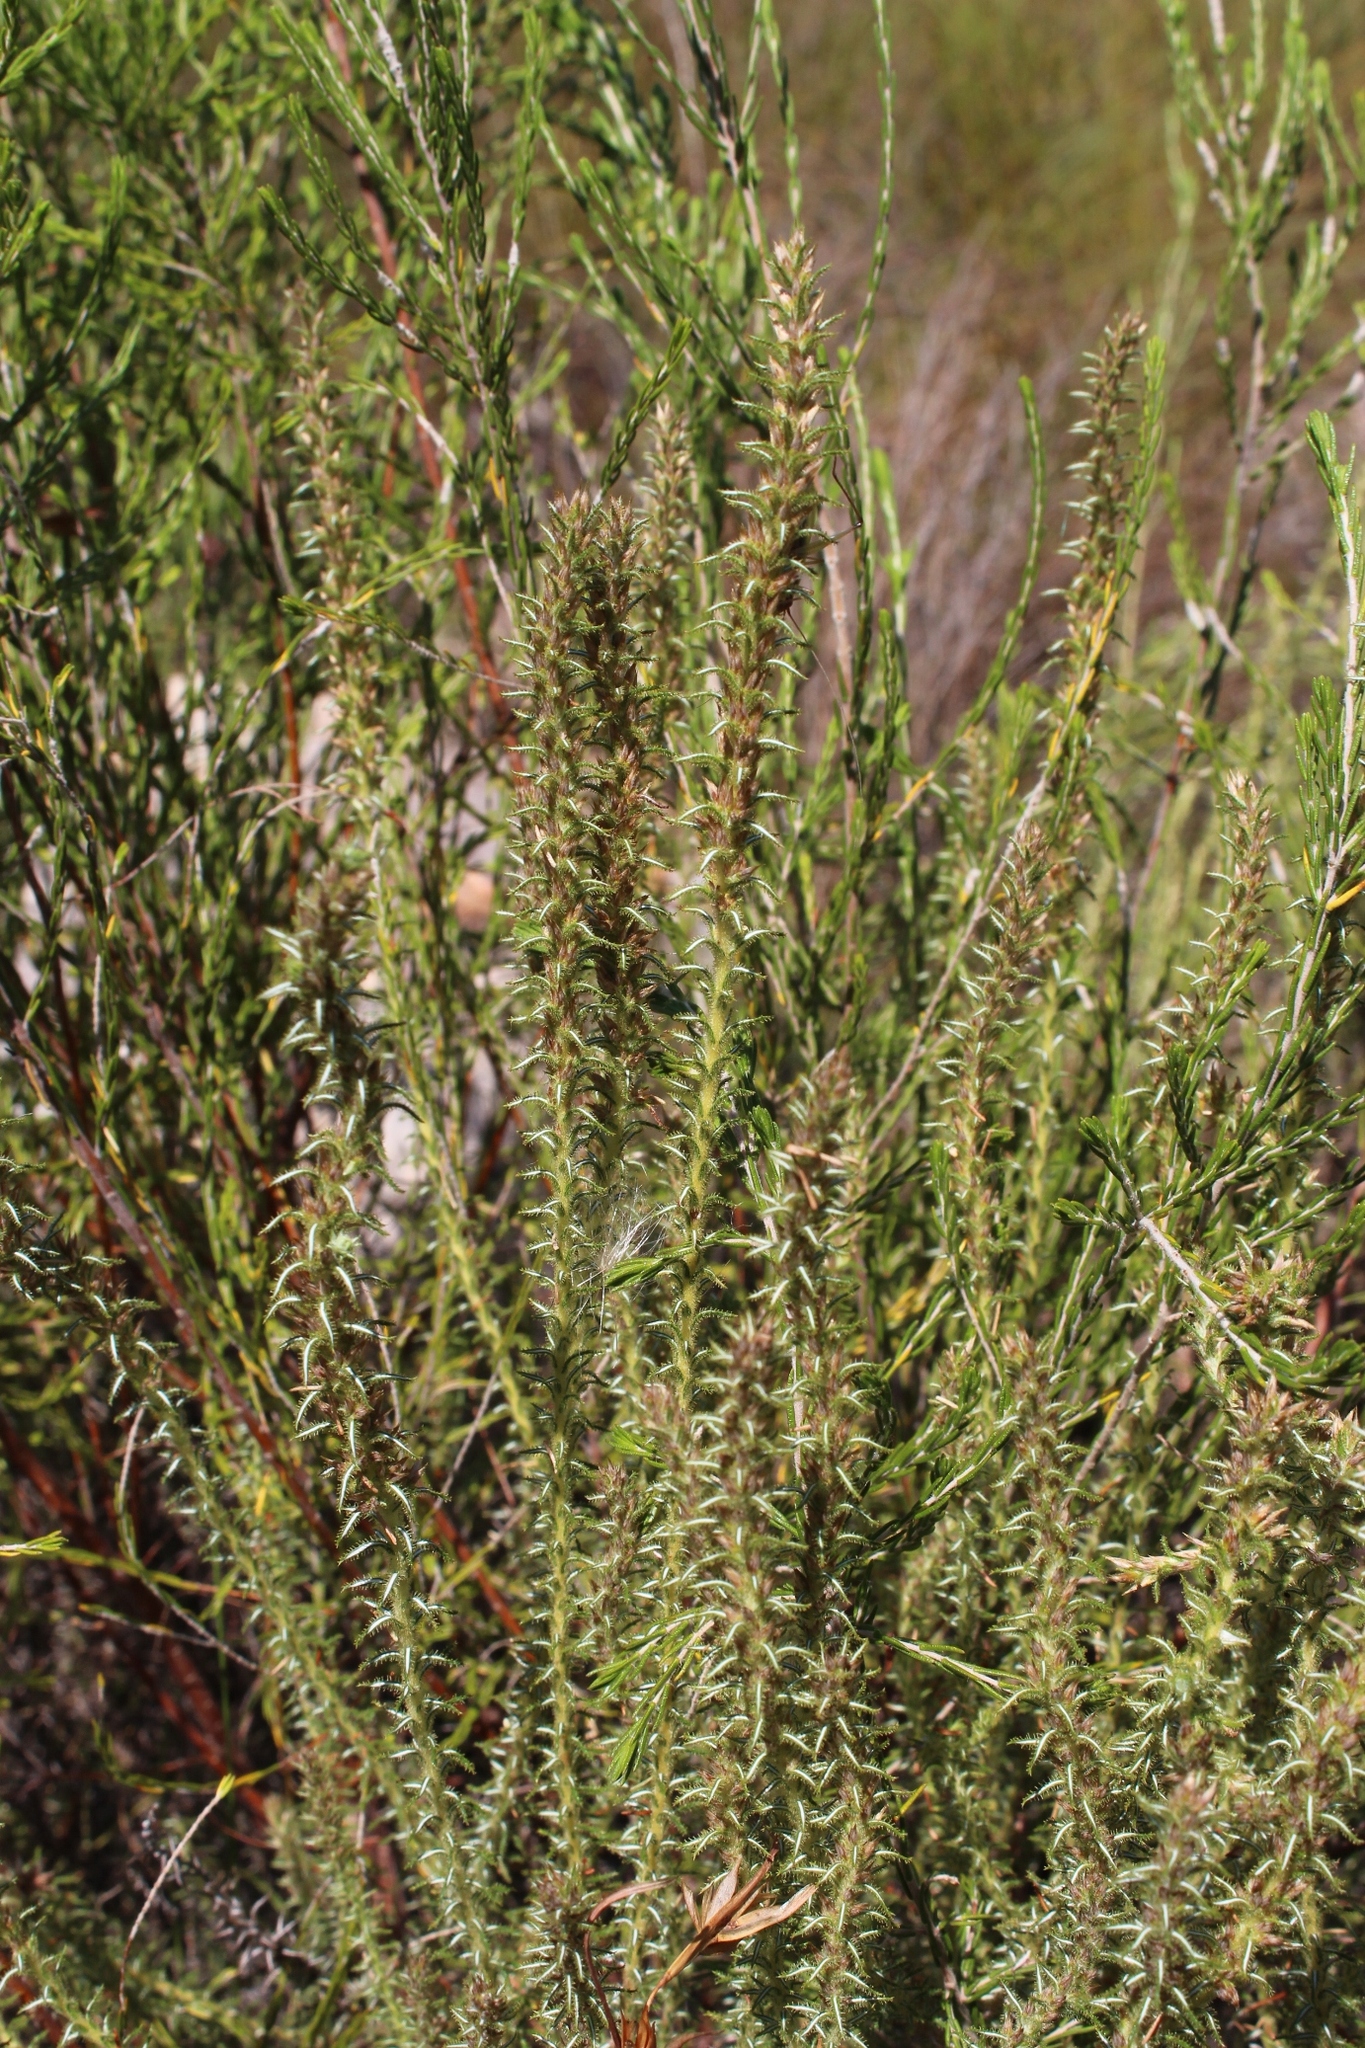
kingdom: Plantae
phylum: Tracheophyta
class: Magnoliopsida
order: Asterales
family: Asteraceae
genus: Myrovernix
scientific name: Myrovernix glandulosus
